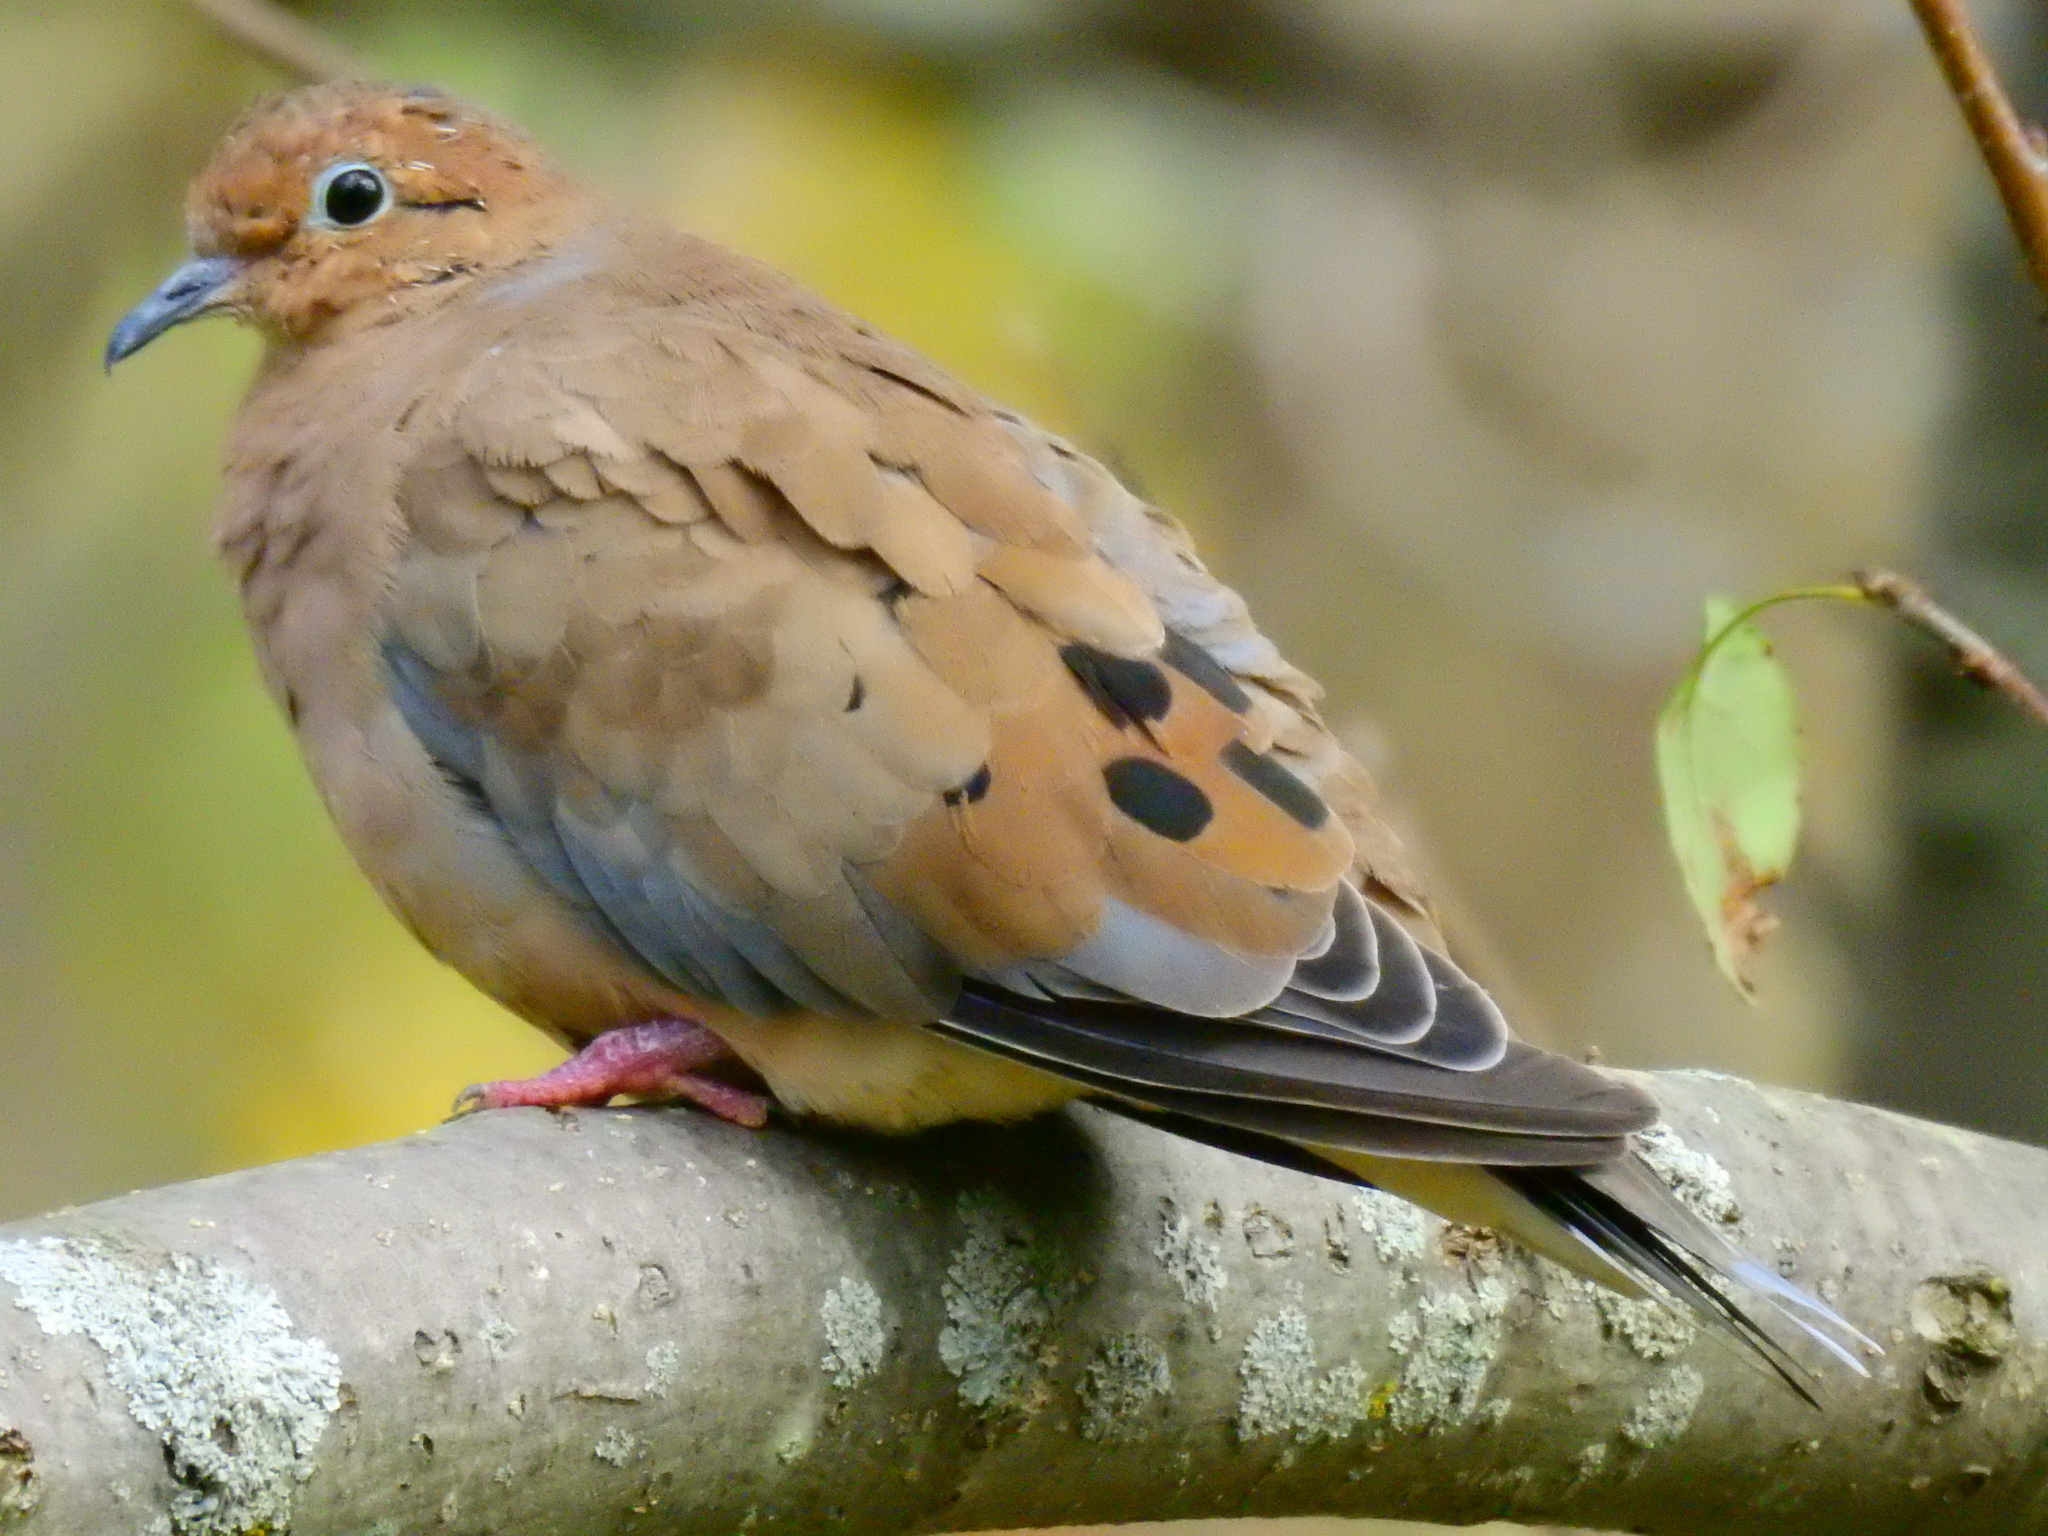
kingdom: Animalia
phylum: Chordata
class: Aves
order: Columbiformes
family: Columbidae
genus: Zenaida
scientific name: Zenaida macroura
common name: Mourning dove
